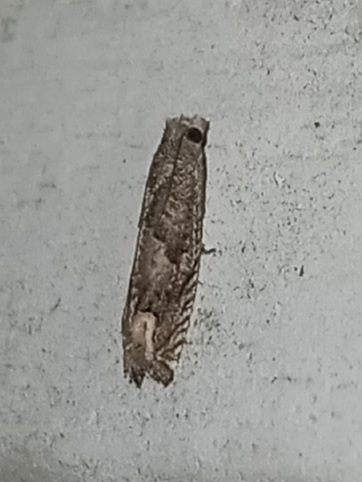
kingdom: Animalia
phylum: Arthropoda
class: Insecta
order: Lepidoptera
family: Tortricidae
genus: Epiblema
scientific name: Epiblema strenuana
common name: Ragweed borer moth
